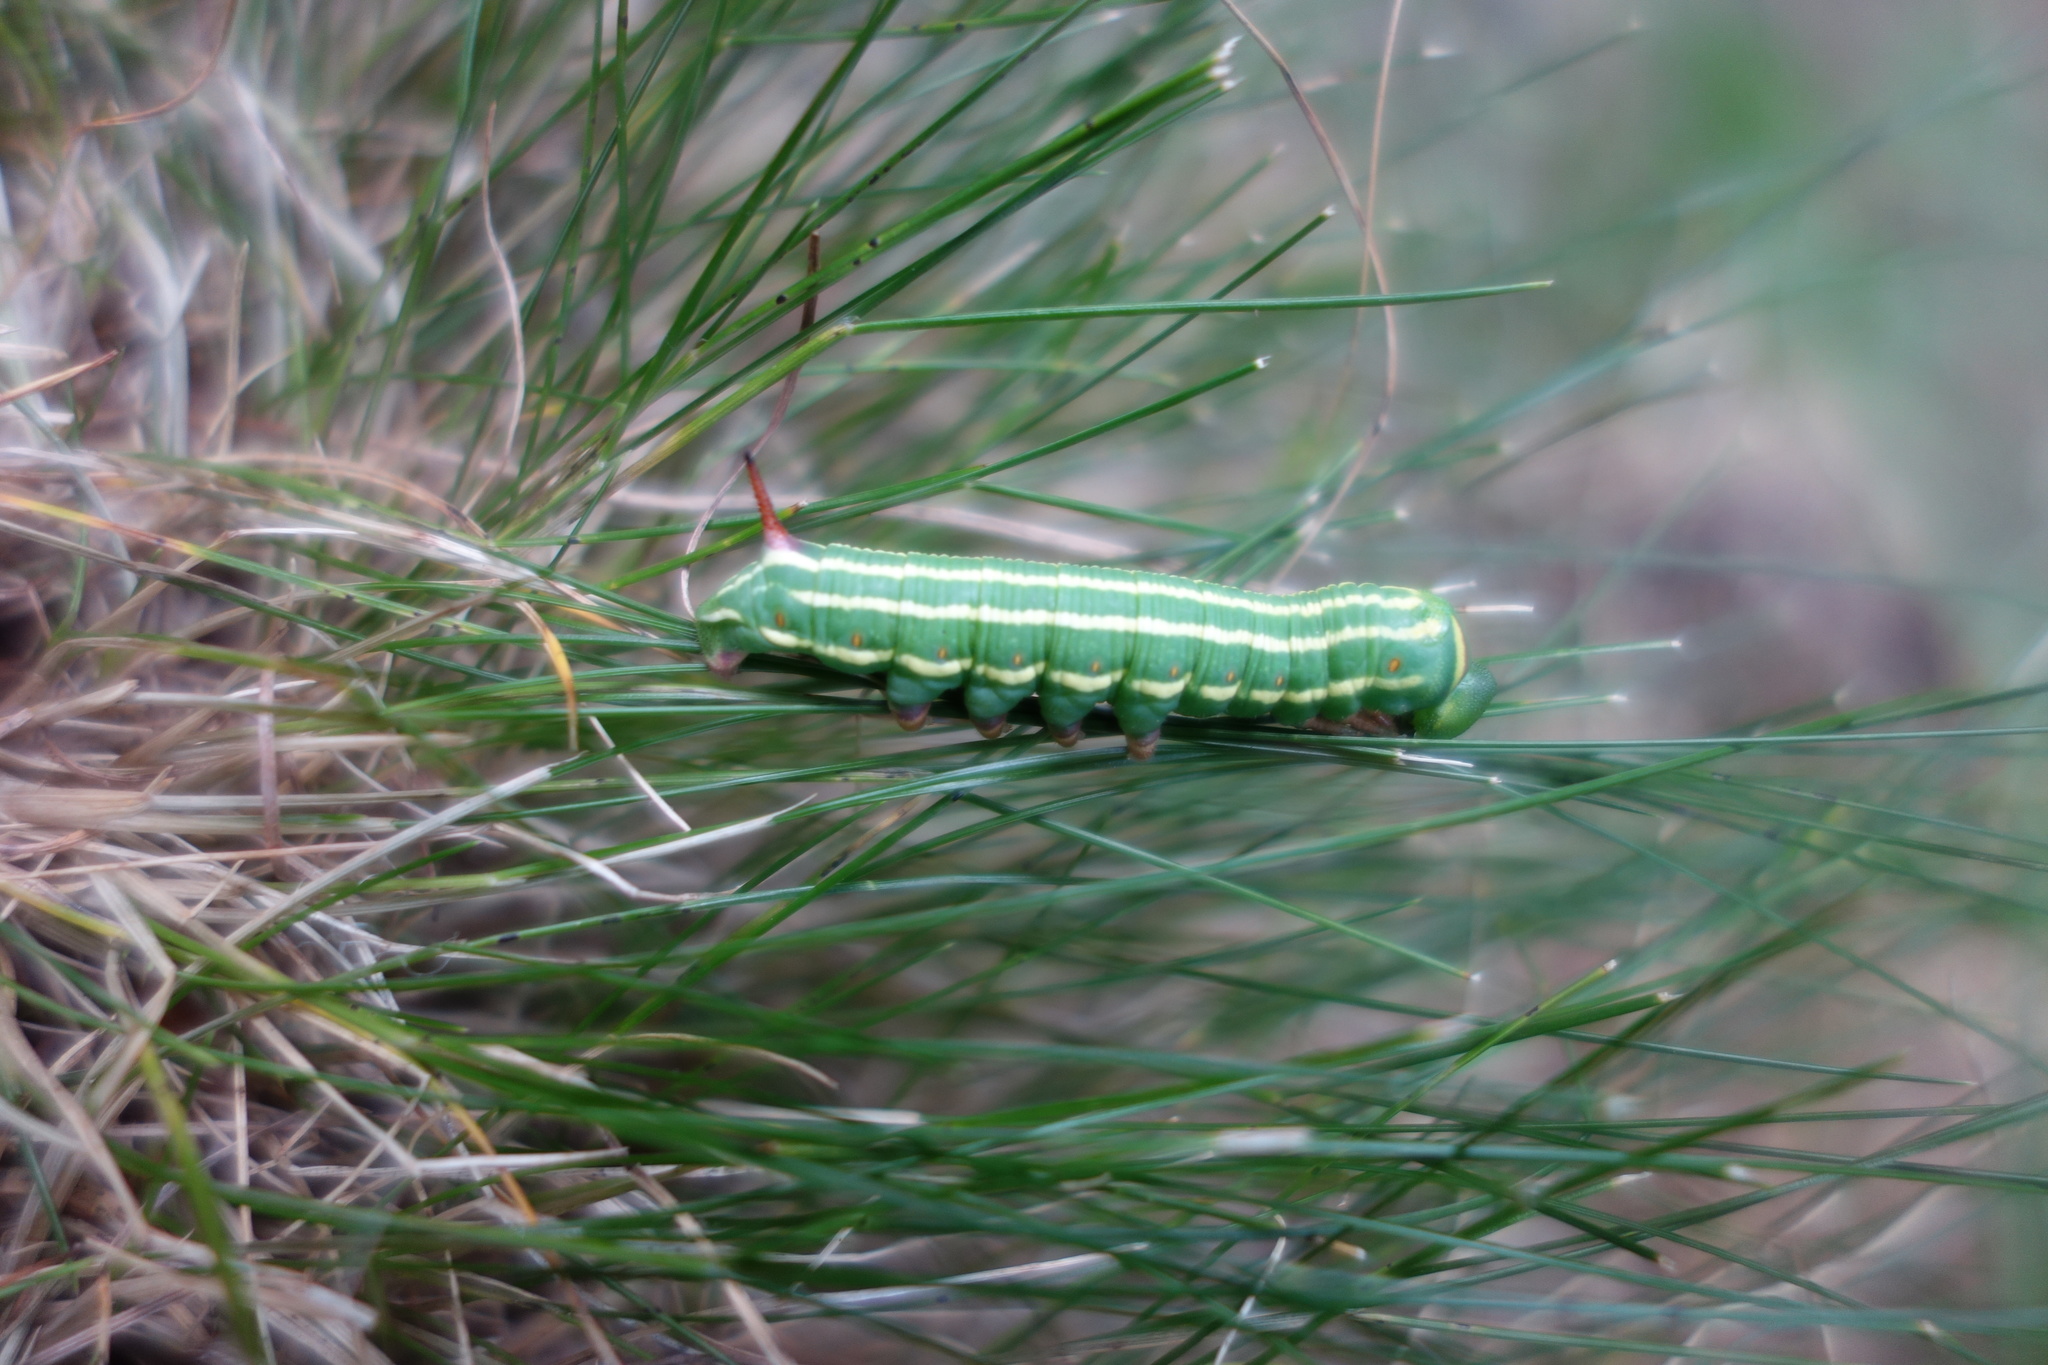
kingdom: Animalia
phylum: Arthropoda
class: Insecta
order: Lepidoptera
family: Sphingidae
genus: Sphinx
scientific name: Sphinx pinastri
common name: Pine hawk-moth
